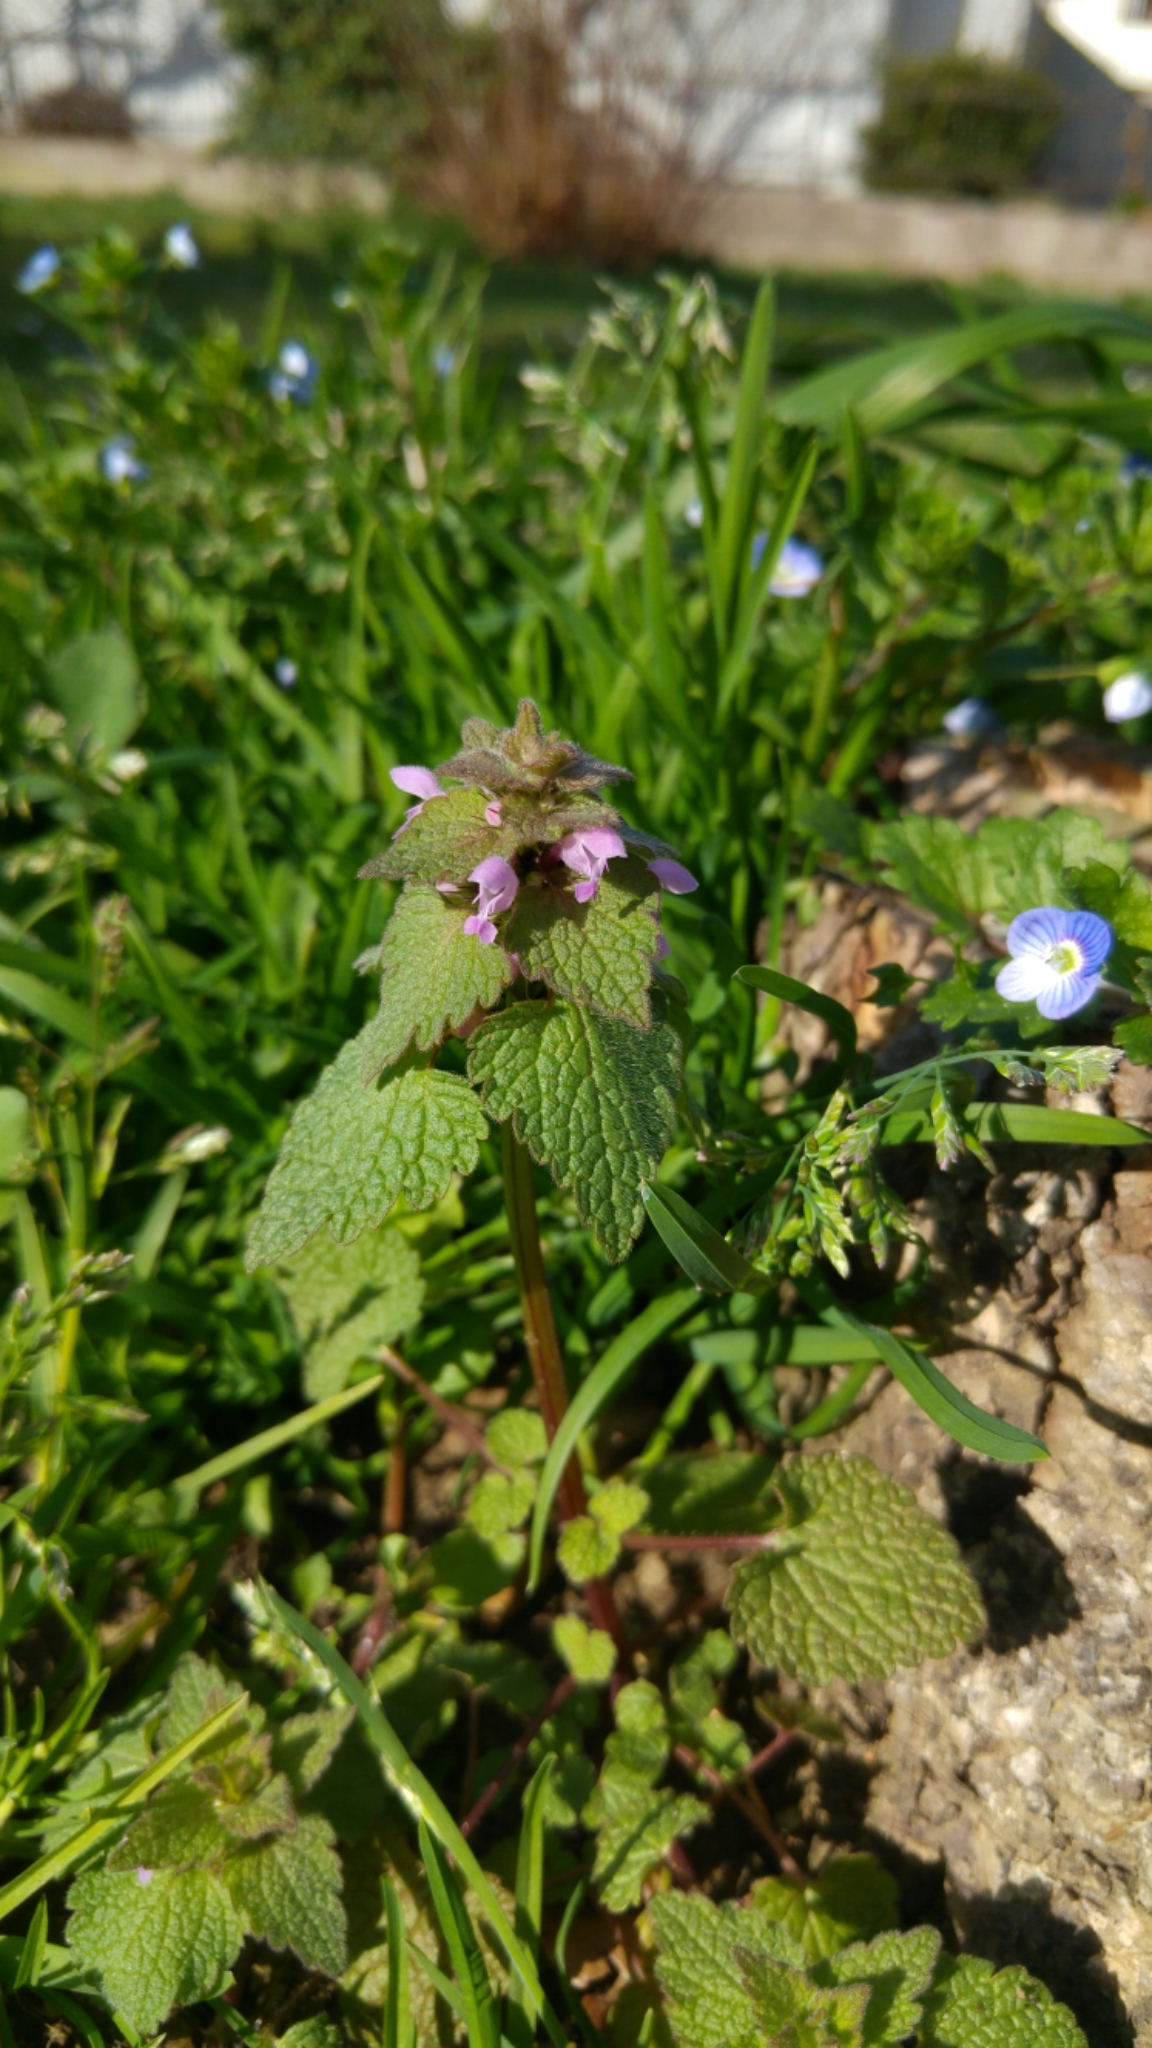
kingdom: Plantae
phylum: Tracheophyta
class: Magnoliopsida
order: Lamiales
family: Lamiaceae
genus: Lamium
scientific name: Lamium purpureum
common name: Red dead-nettle
